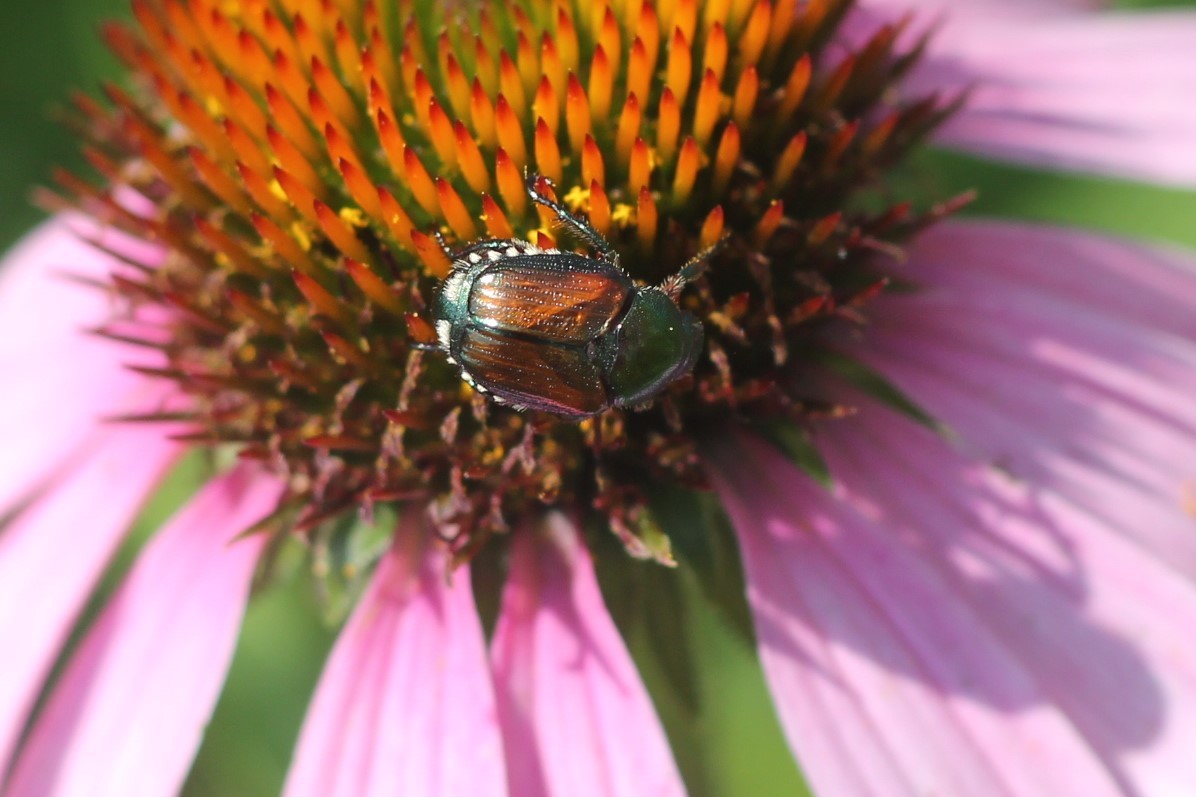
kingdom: Animalia
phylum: Arthropoda
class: Insecta
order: Coleoptera
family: Scarabaeidae
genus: Popillia
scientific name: Popillia japonica
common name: Japanese beetle
